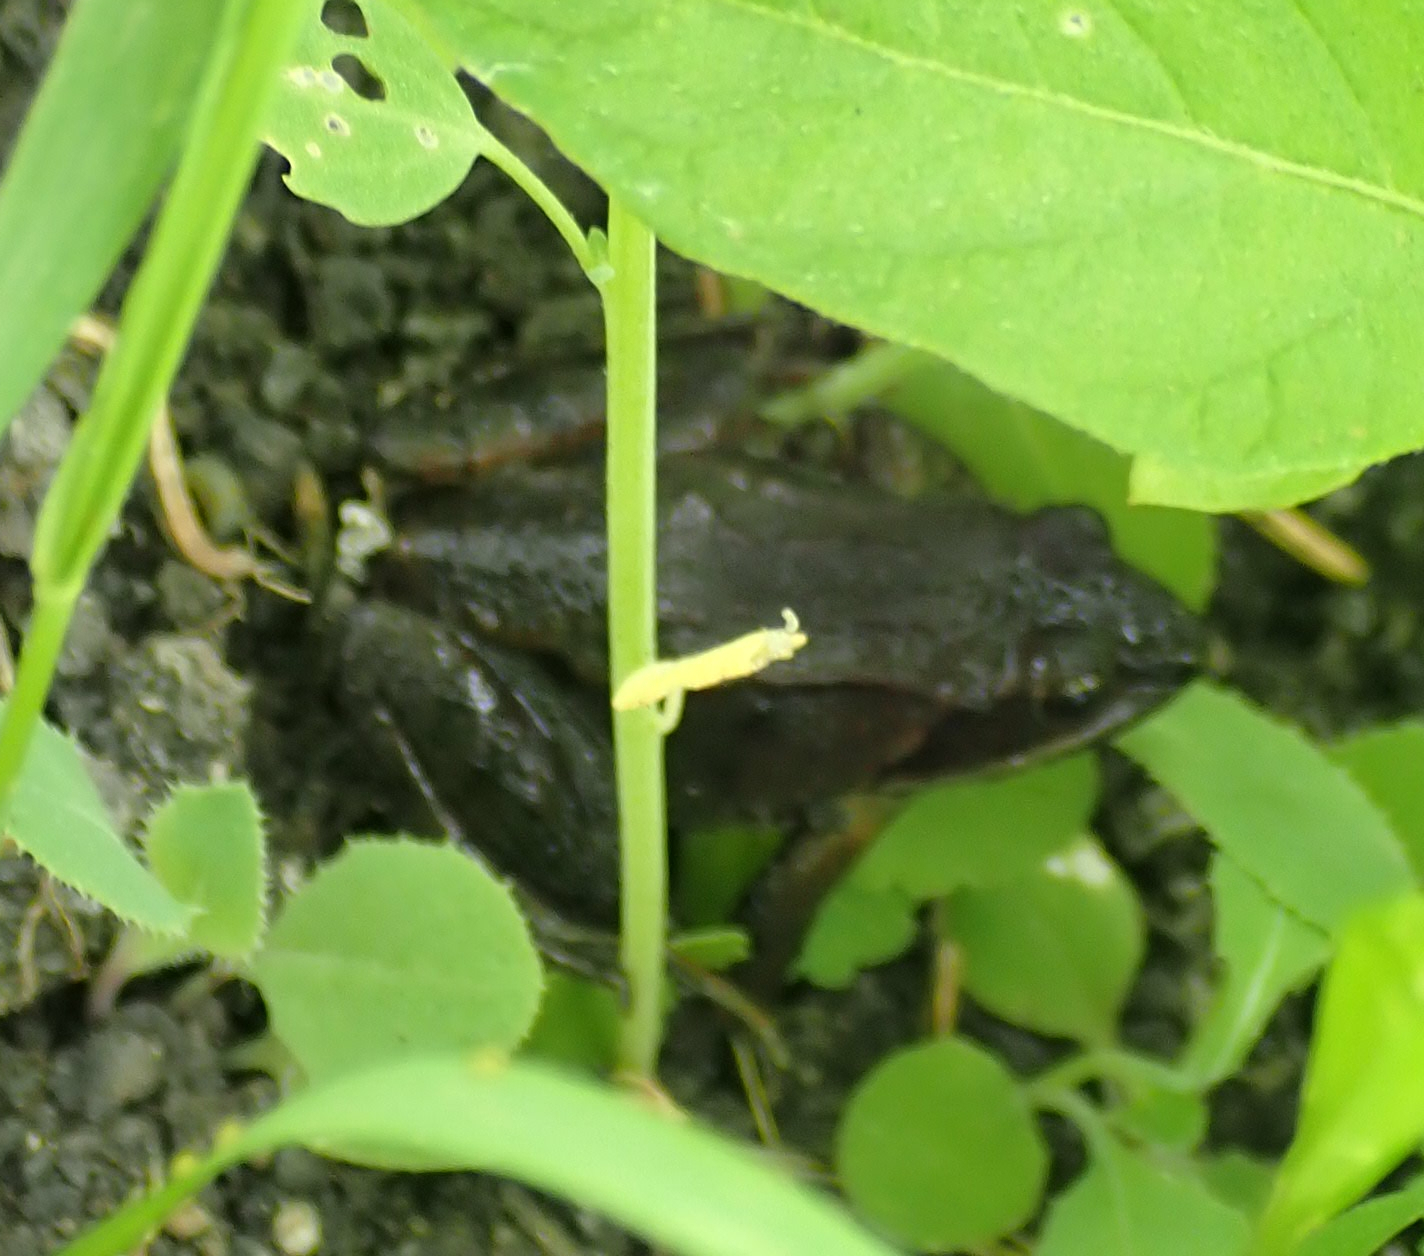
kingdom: Animalia
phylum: Chordata
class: Amphibia
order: Anura
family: Ranidae
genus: Lithobates
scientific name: Lithobates sylvaticus
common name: Wood frog
